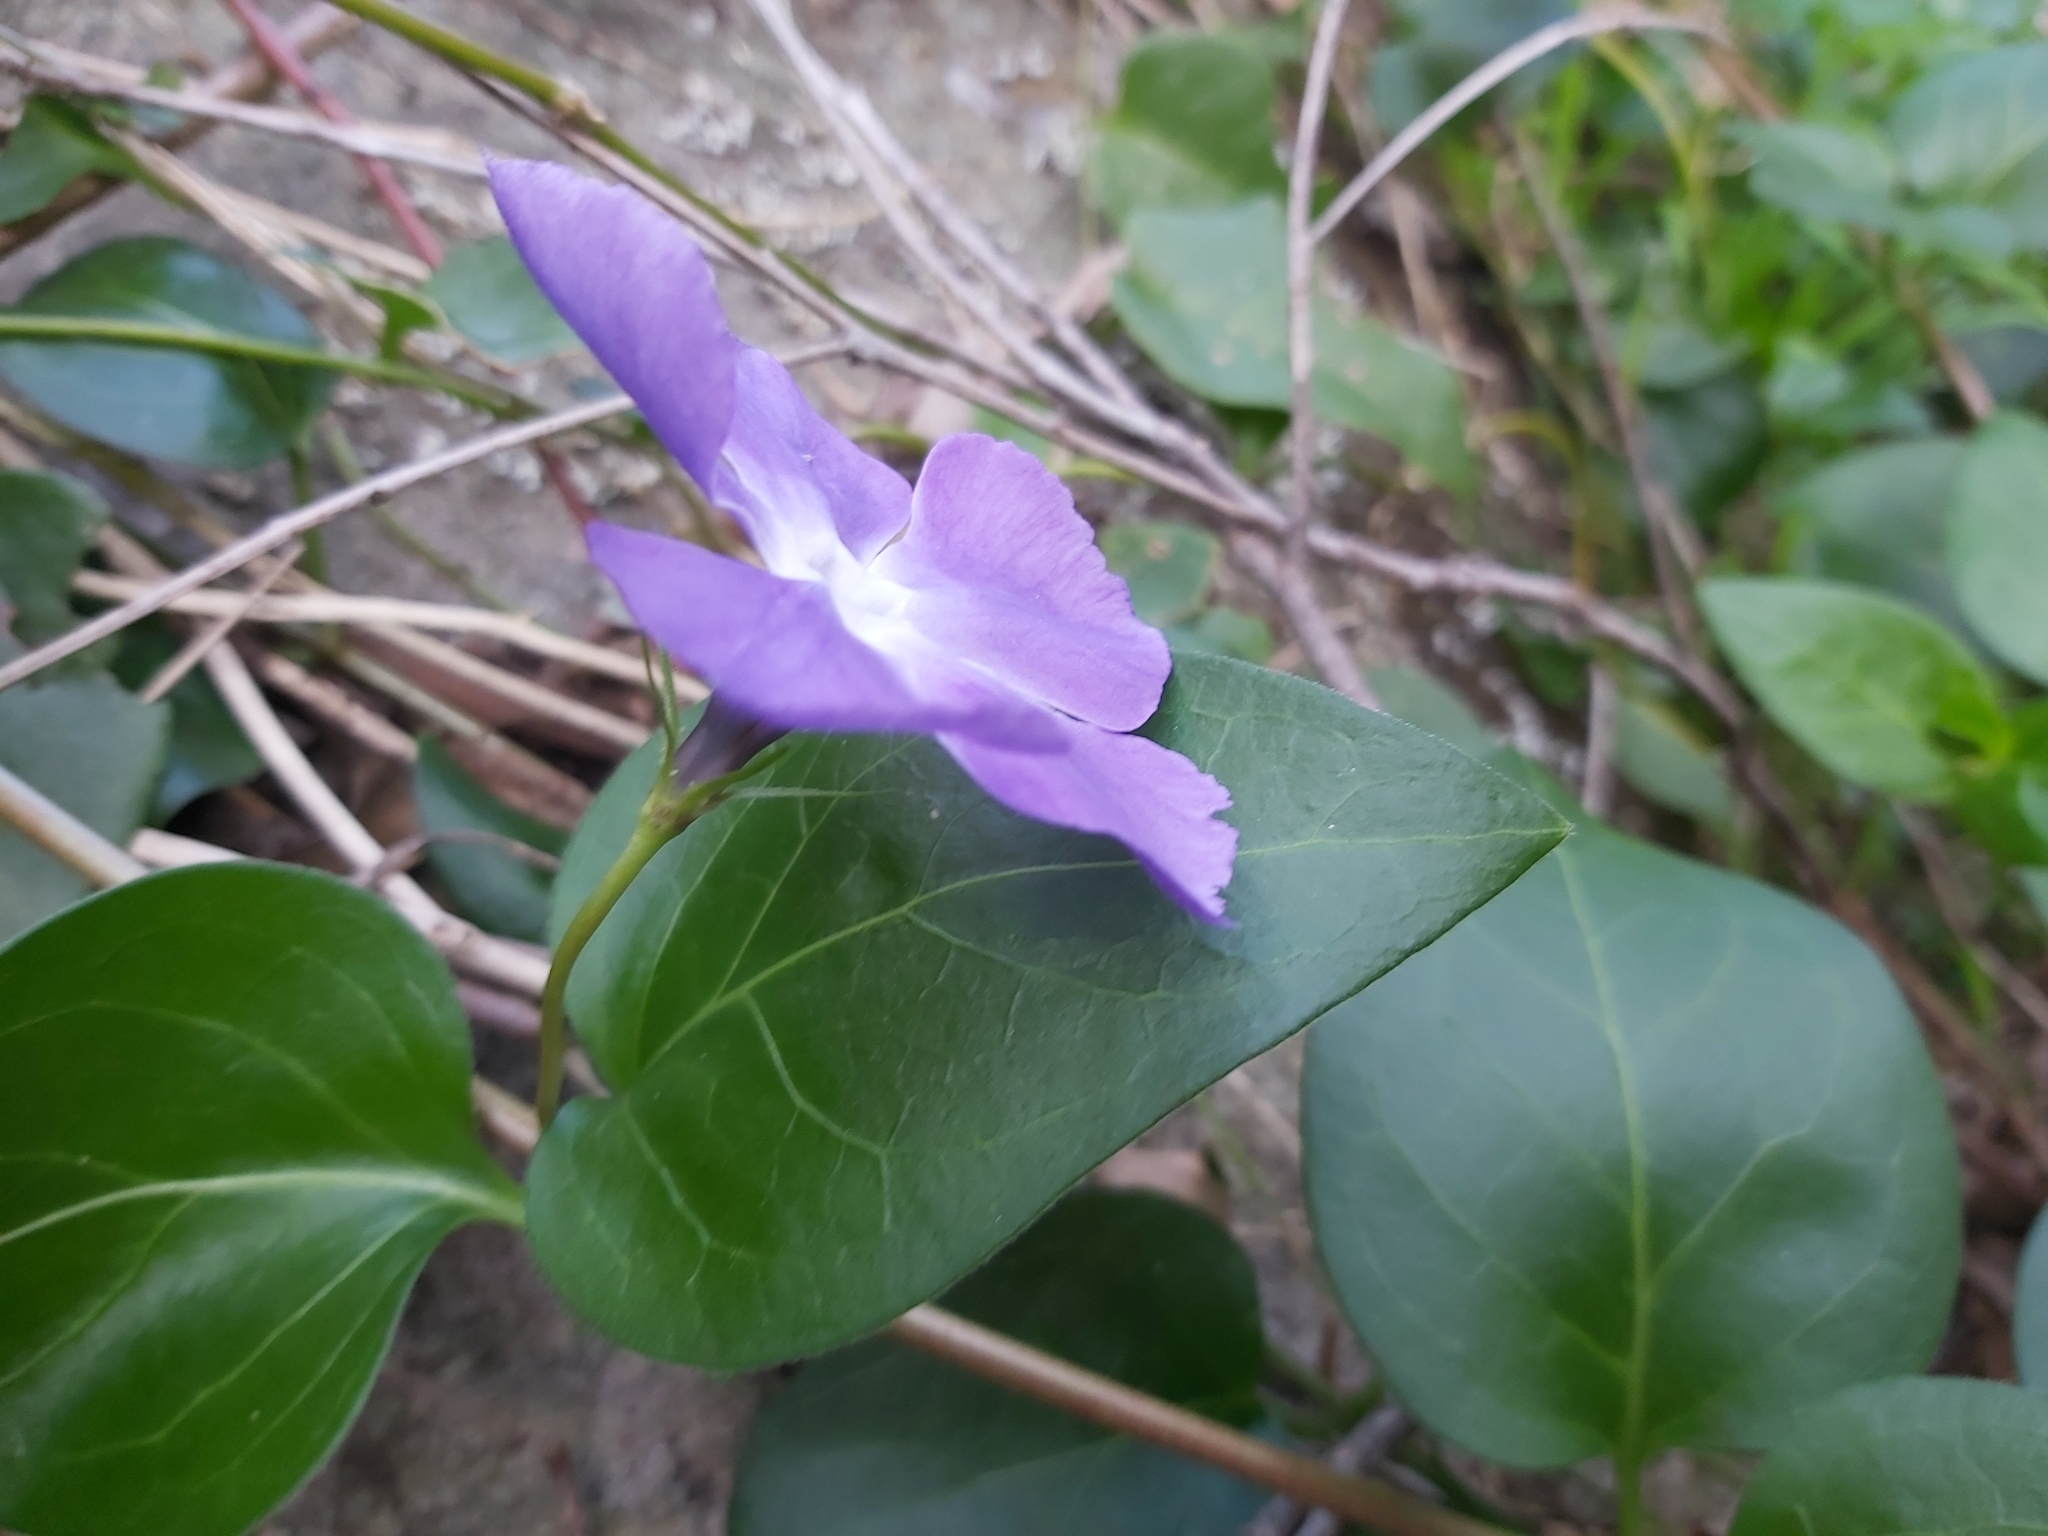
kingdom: Plantae
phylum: Tracheophyta
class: Magnoliopsida
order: Gentianales
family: Apocynaceae
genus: Vinca
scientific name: Vinca major
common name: Greater periwinkle
